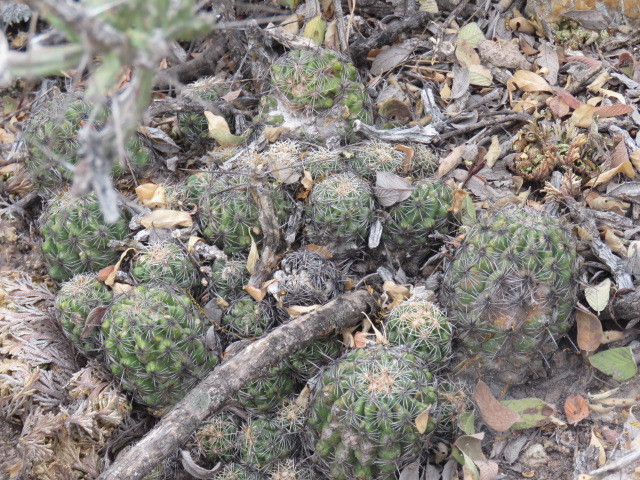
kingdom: Plantae
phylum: Tracheophyta
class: Magnoliopsida
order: Caryophyllales
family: Cactaceae
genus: Thelocactus
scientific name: Thelocactus leucacanthus
